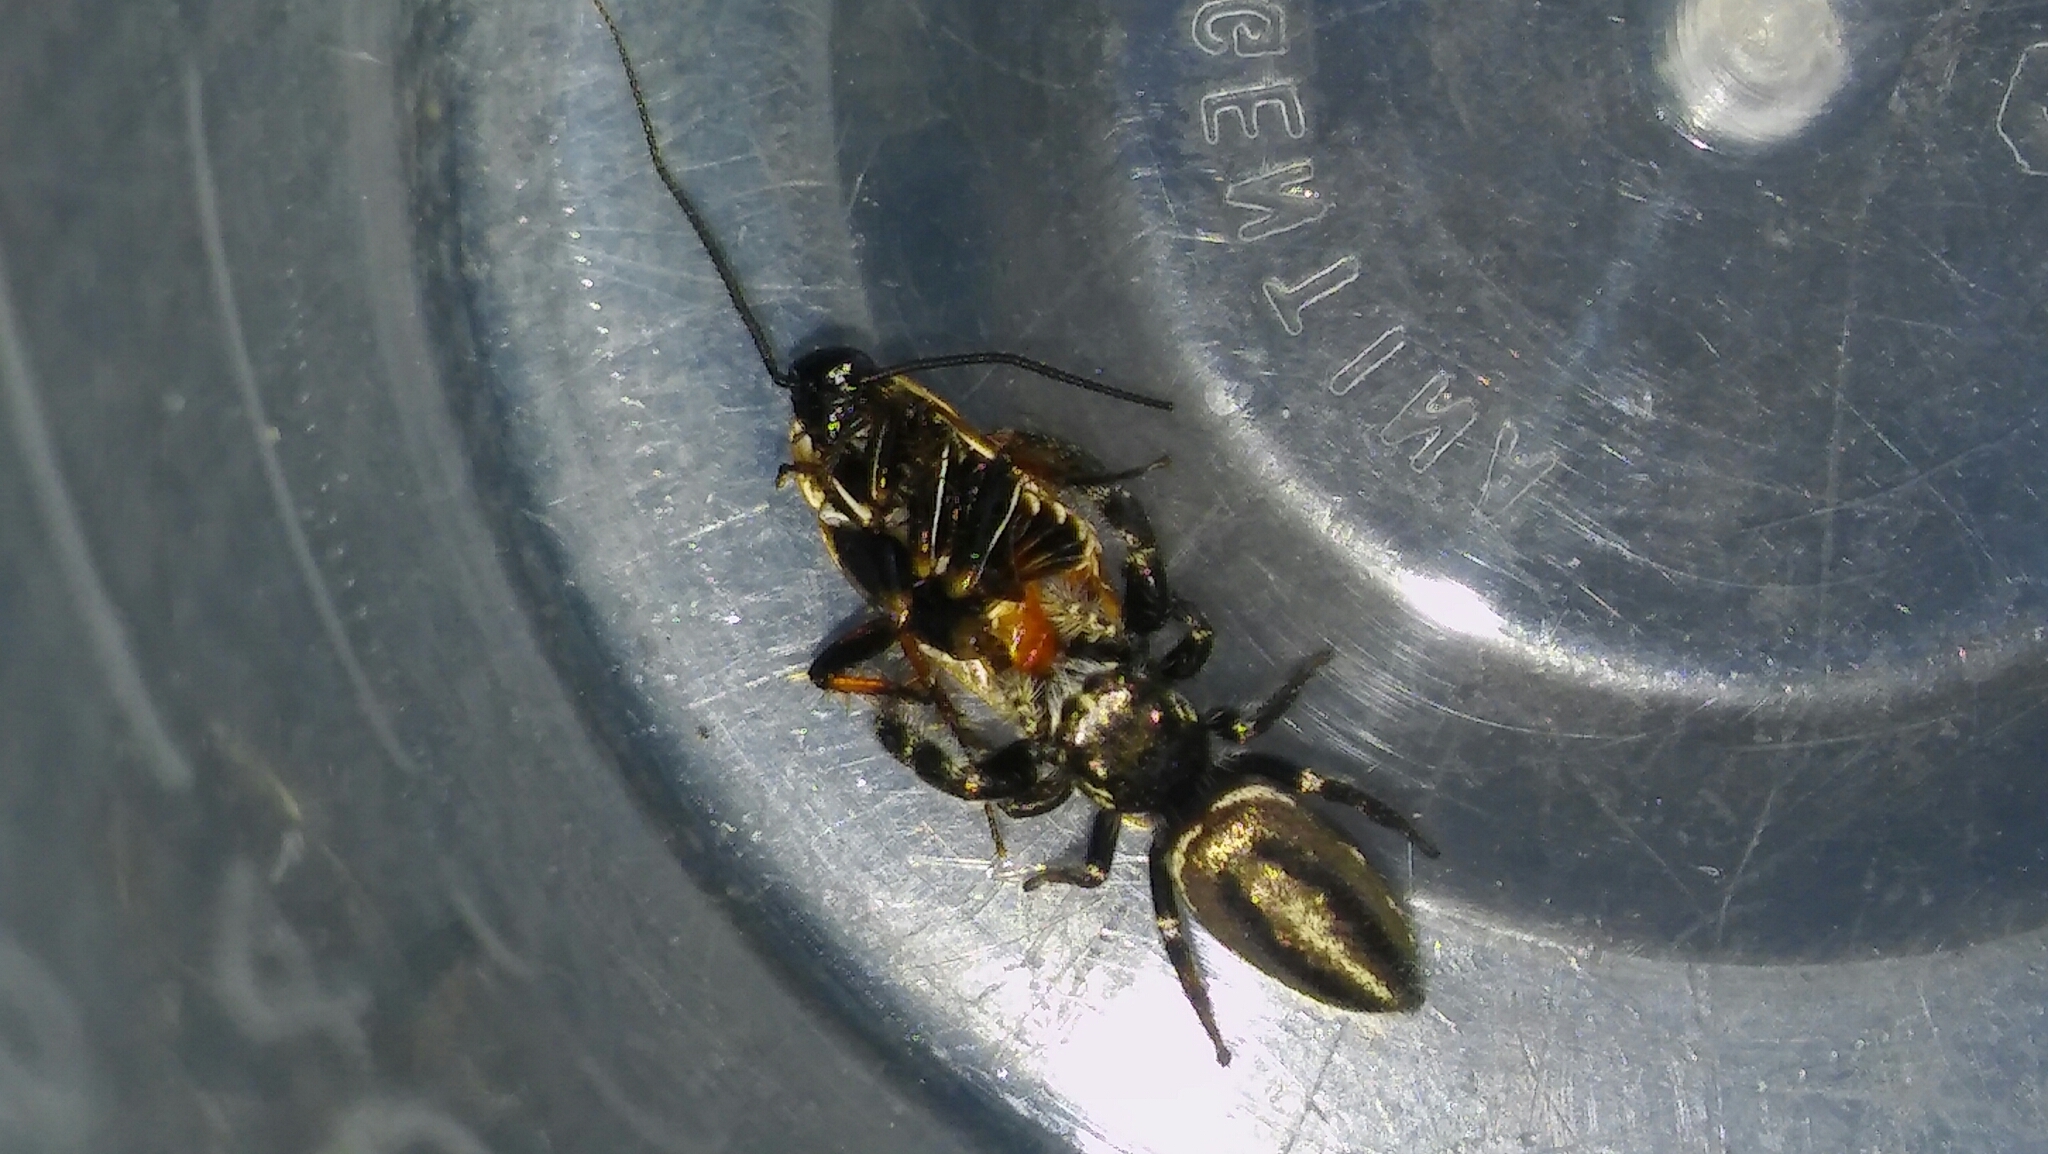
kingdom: Animalia
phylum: Arthropoda
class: Arachnida
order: Araneae
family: Salticidae
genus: Dendryphantes
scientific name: Dendryphantes mordax
